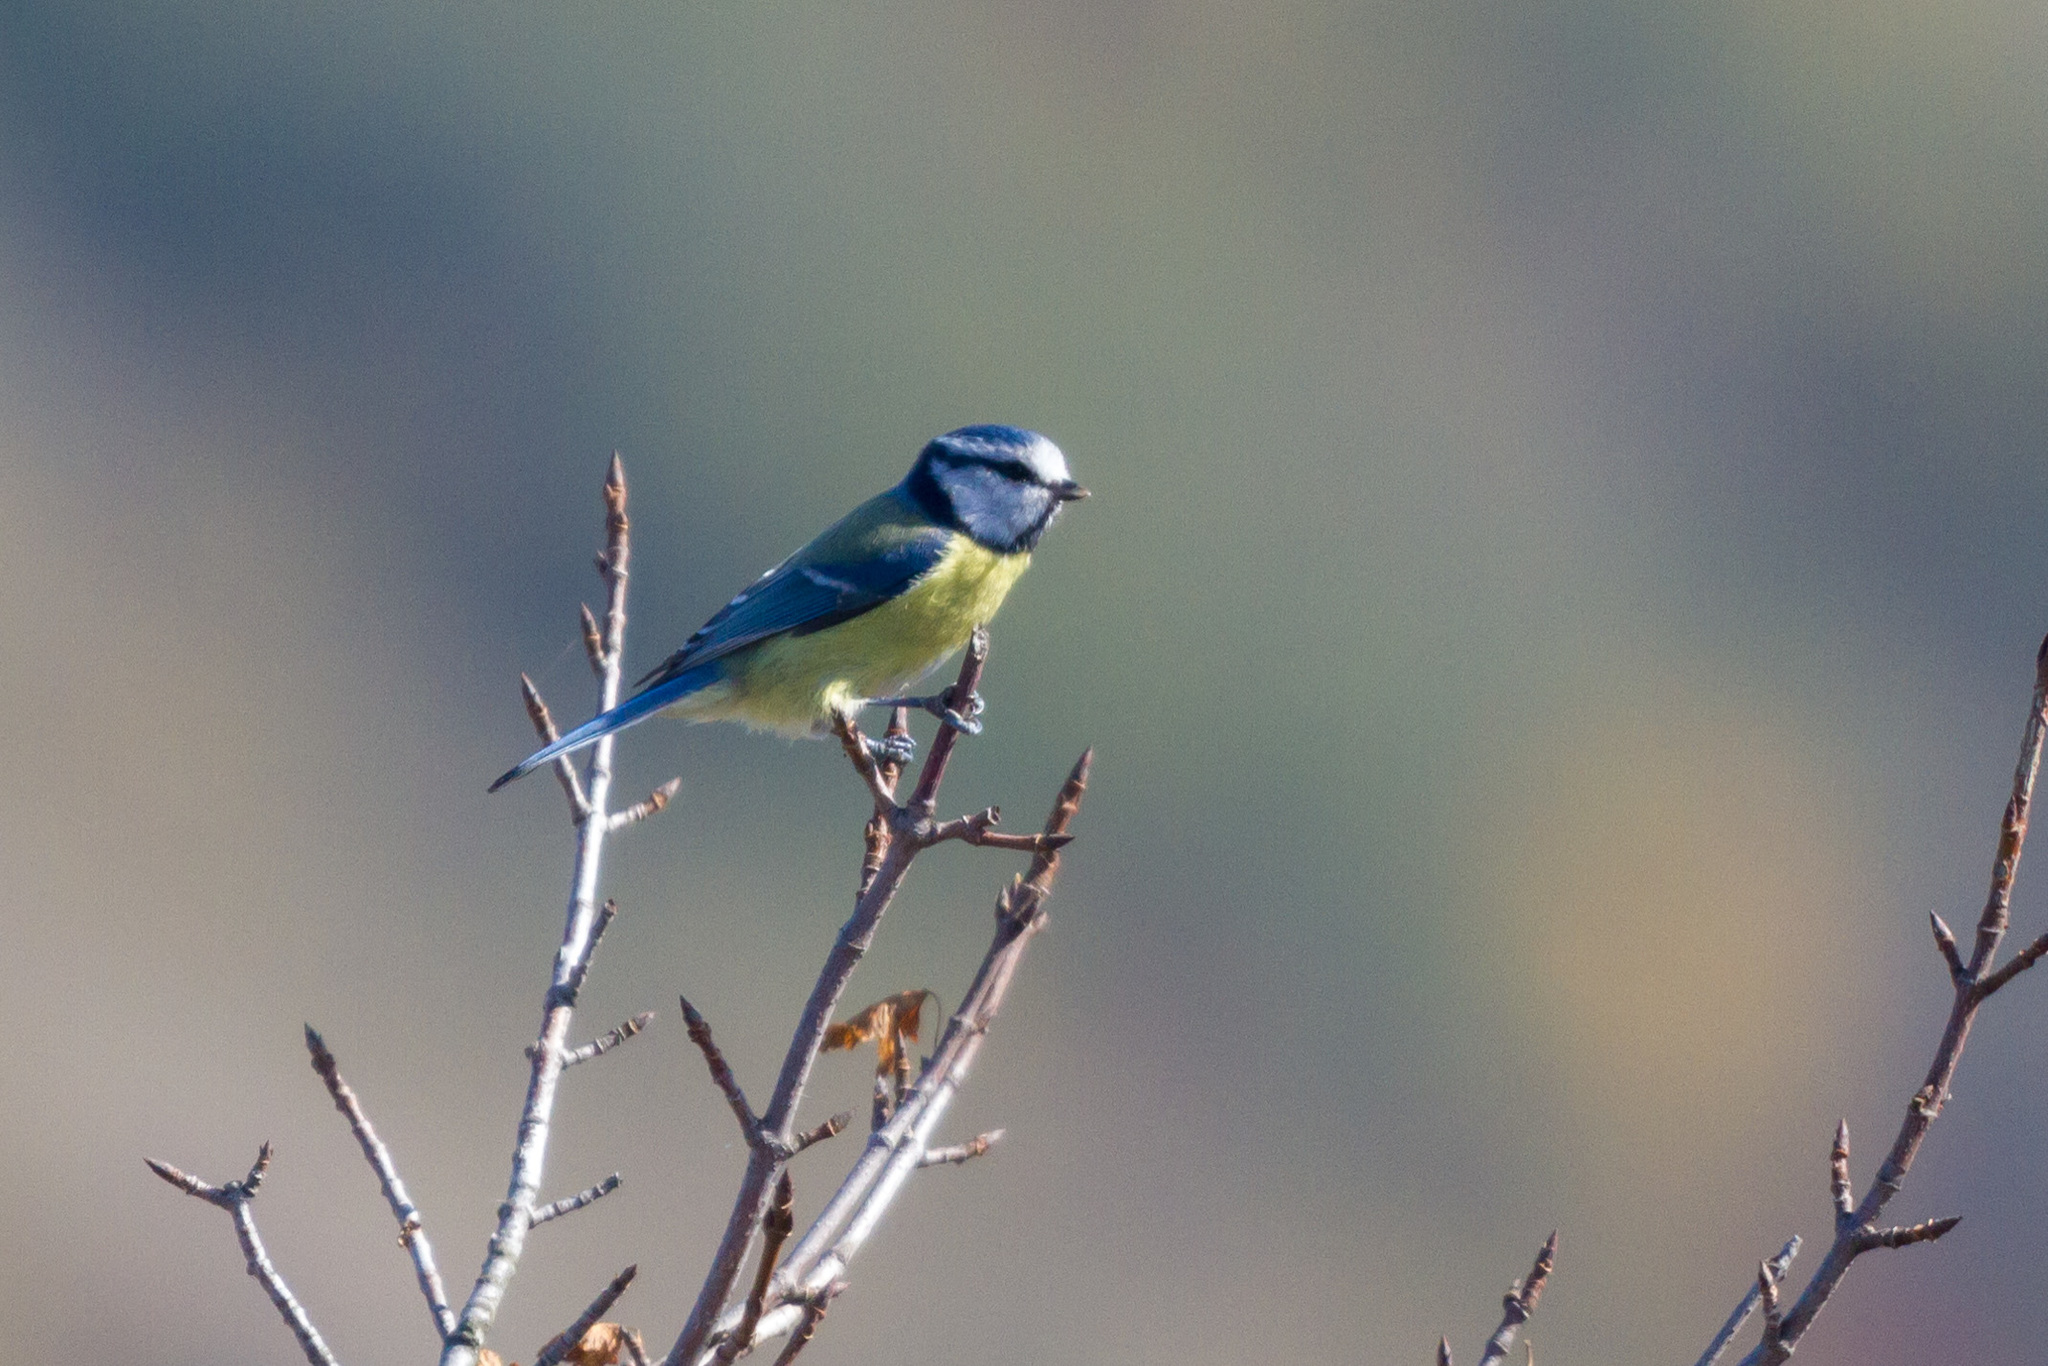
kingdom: Animalia
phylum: Chordata
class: Aves
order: Passeriformes
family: Paridae
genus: Cyanistes
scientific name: Cyanistes caeruleus
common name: Eurasian blue tit
